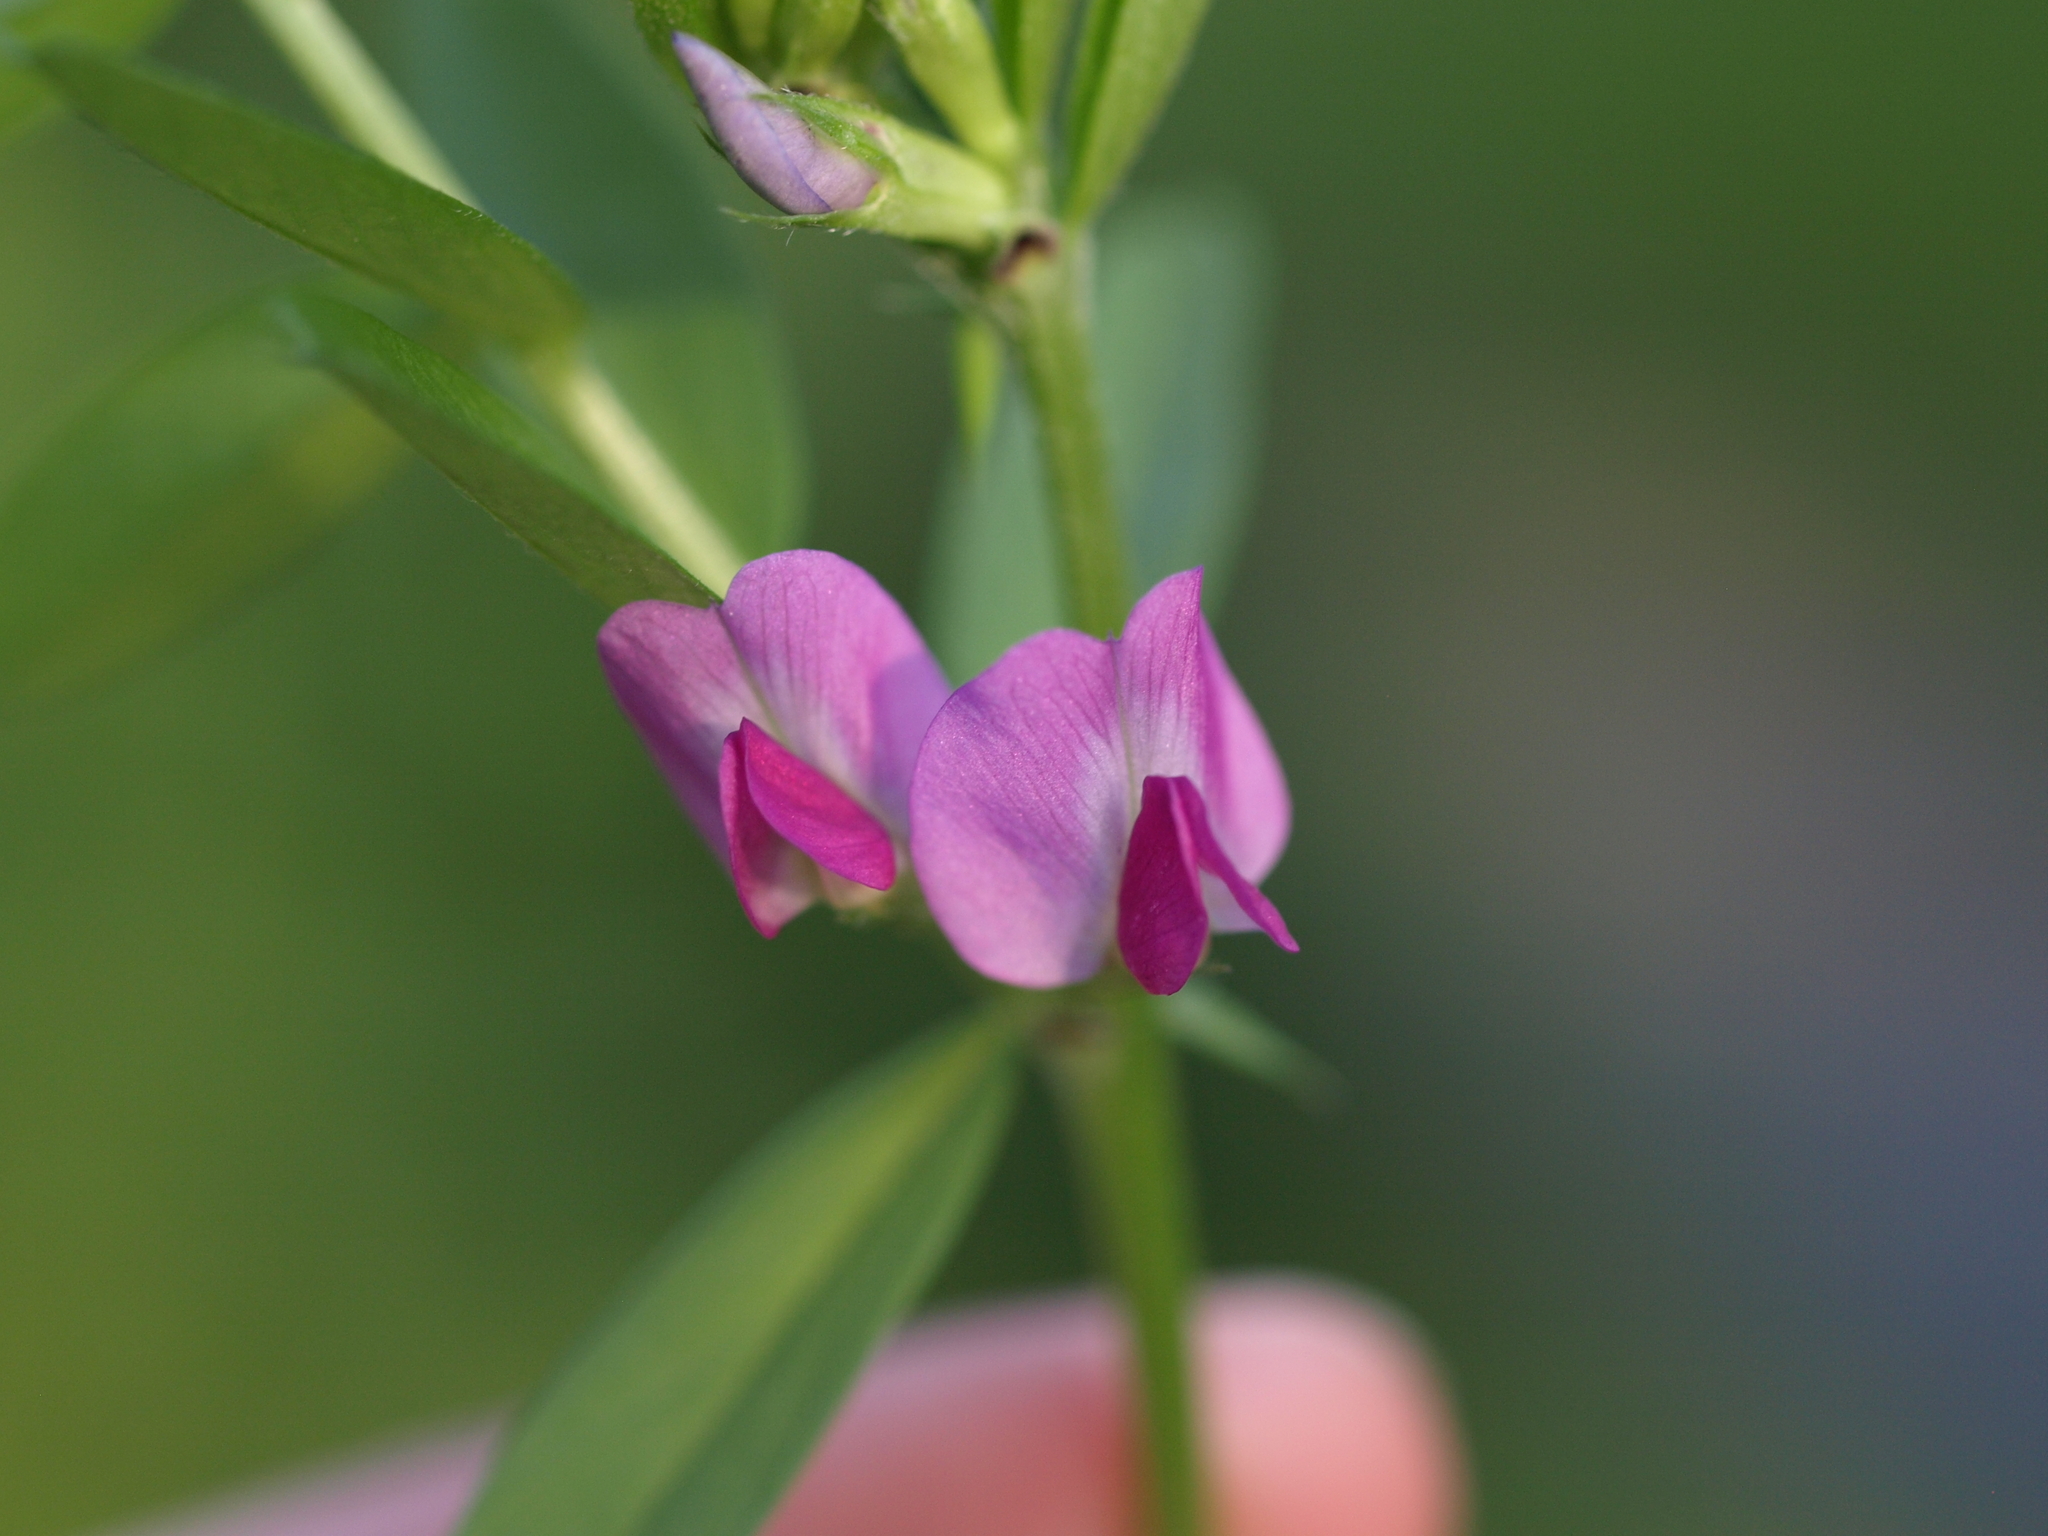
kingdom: Plantae
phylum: Tracheophyta
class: Magnoliopsida
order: Fabales
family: Fabaceae
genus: Vicia
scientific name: Vicia sativa
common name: Garden vetch
